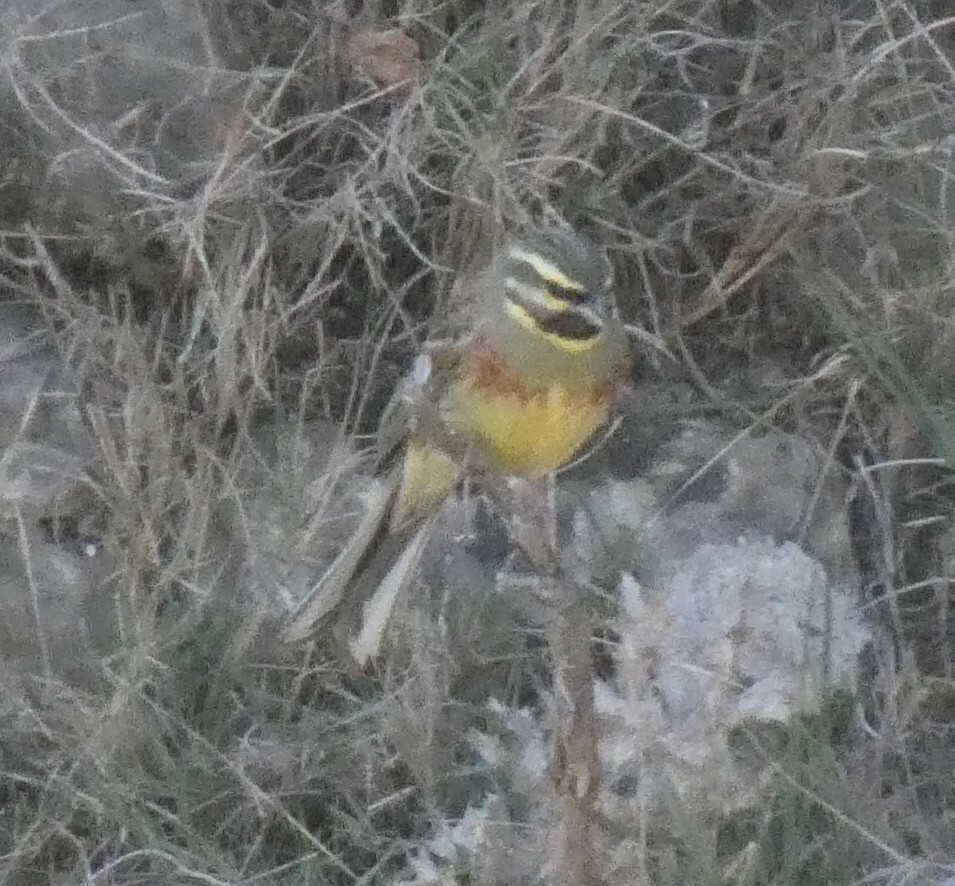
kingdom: Animalia
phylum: Chordata
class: Aves
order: Passeriformes
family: Emberizidae
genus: Emberiza
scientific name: Emberiza cirlus
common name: Cirl bunting
